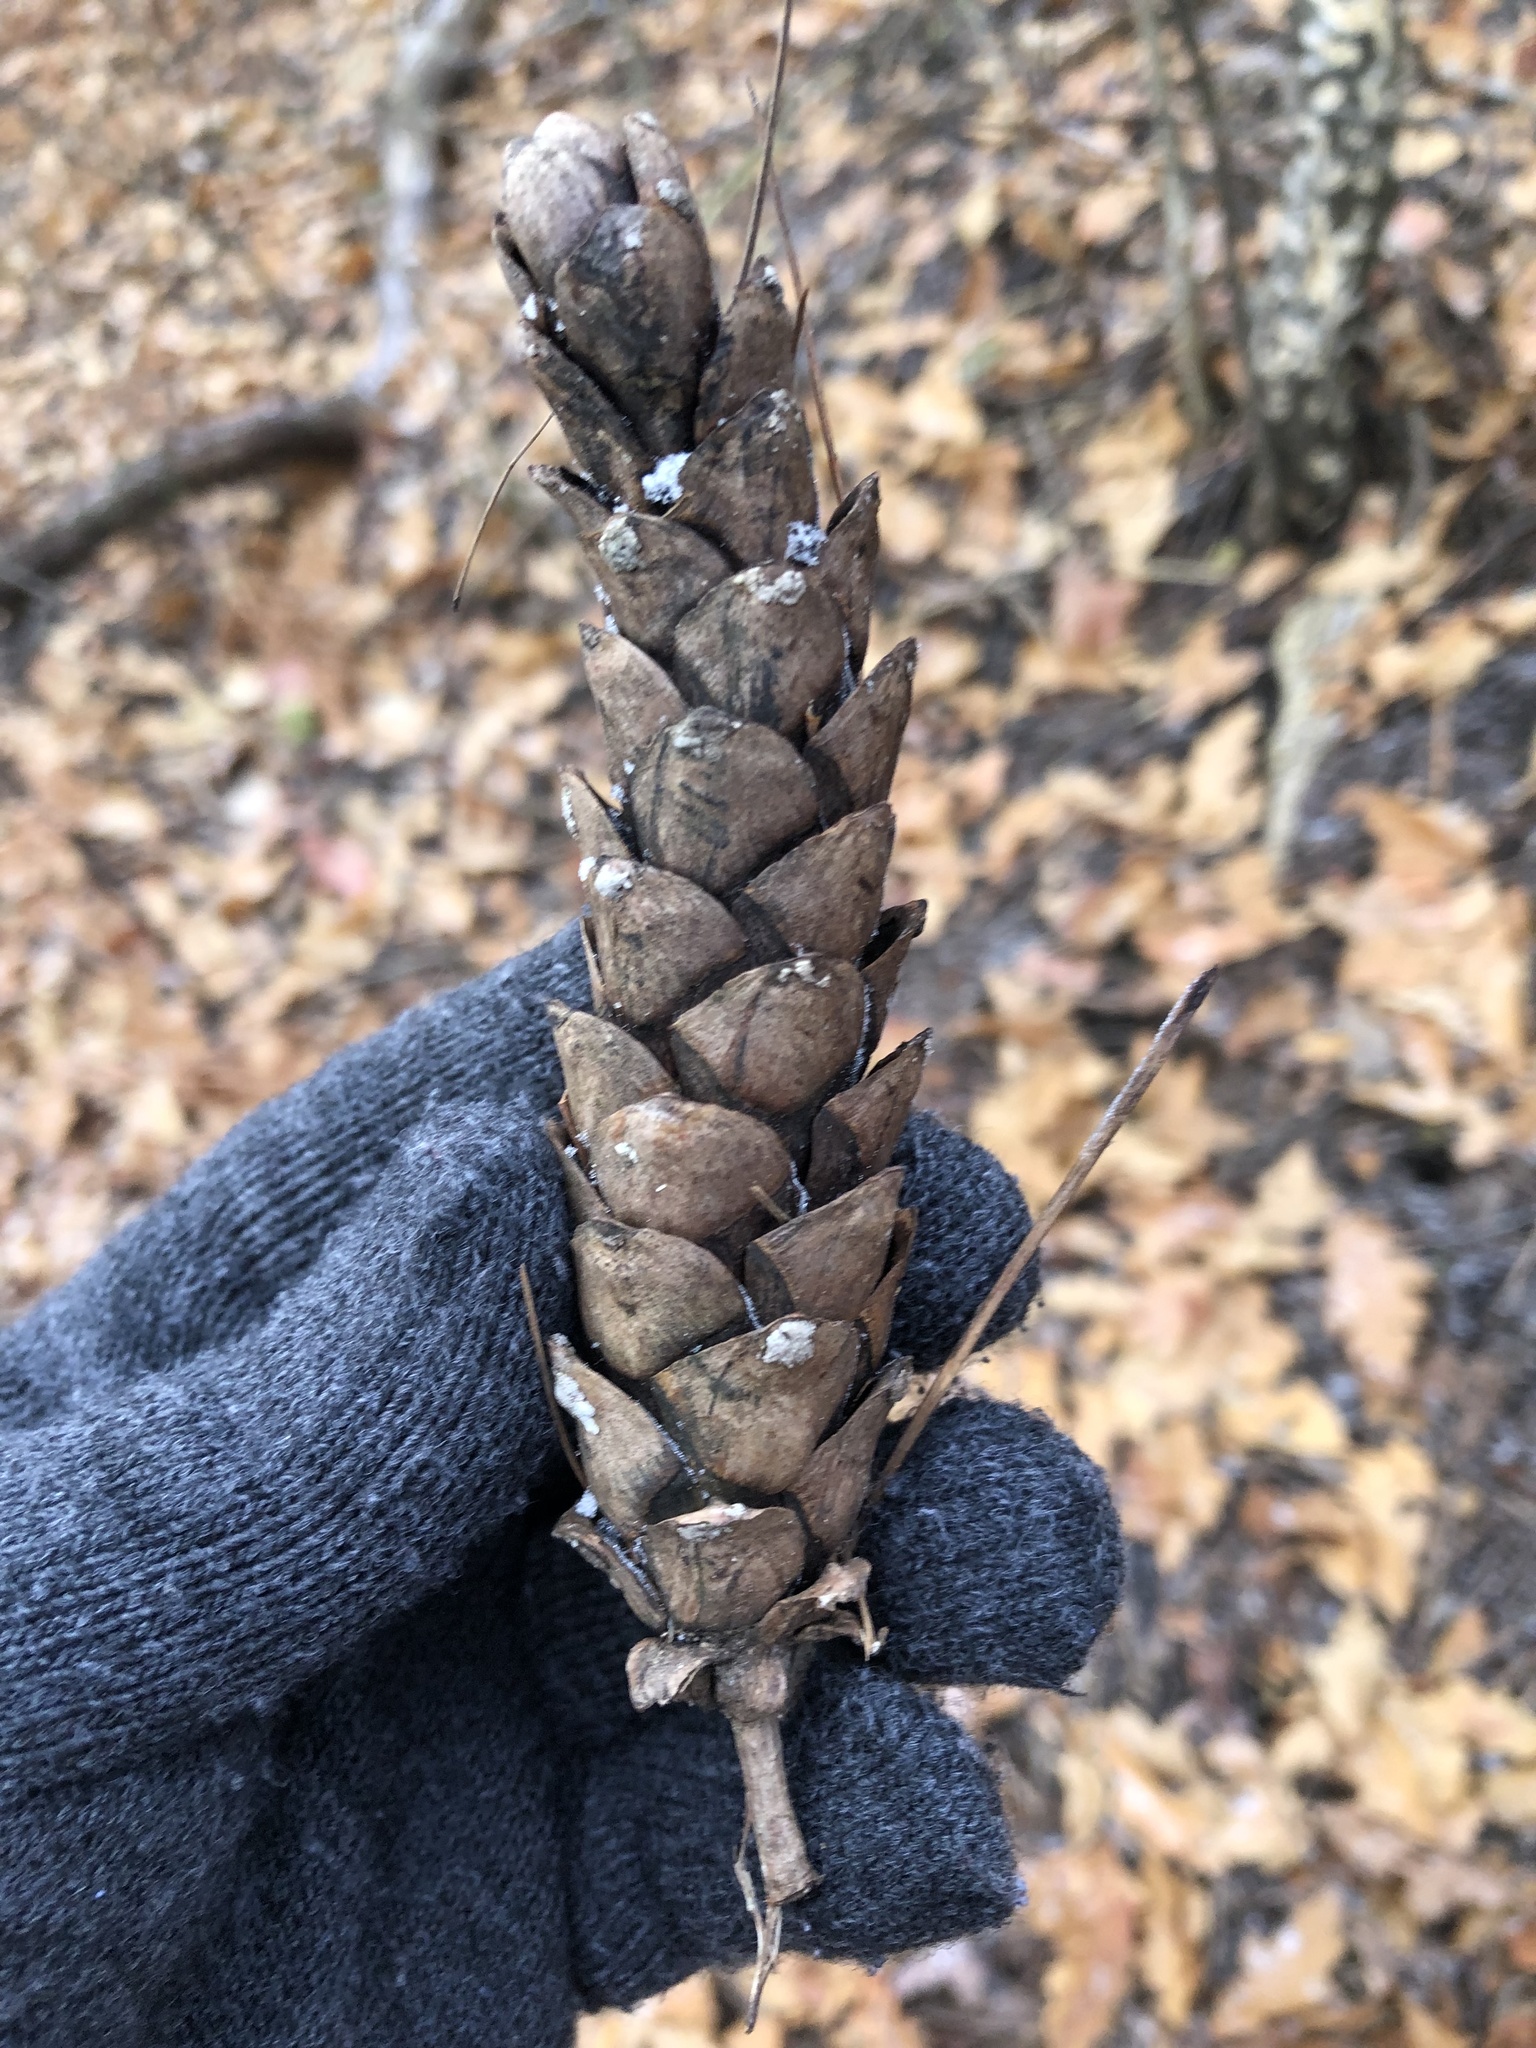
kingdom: Plantae
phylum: Tracheophyta
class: Pinopsida
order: Pinales
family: Pinaceae
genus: Pinus
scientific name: Pinus strobus
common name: Weymouth pine
